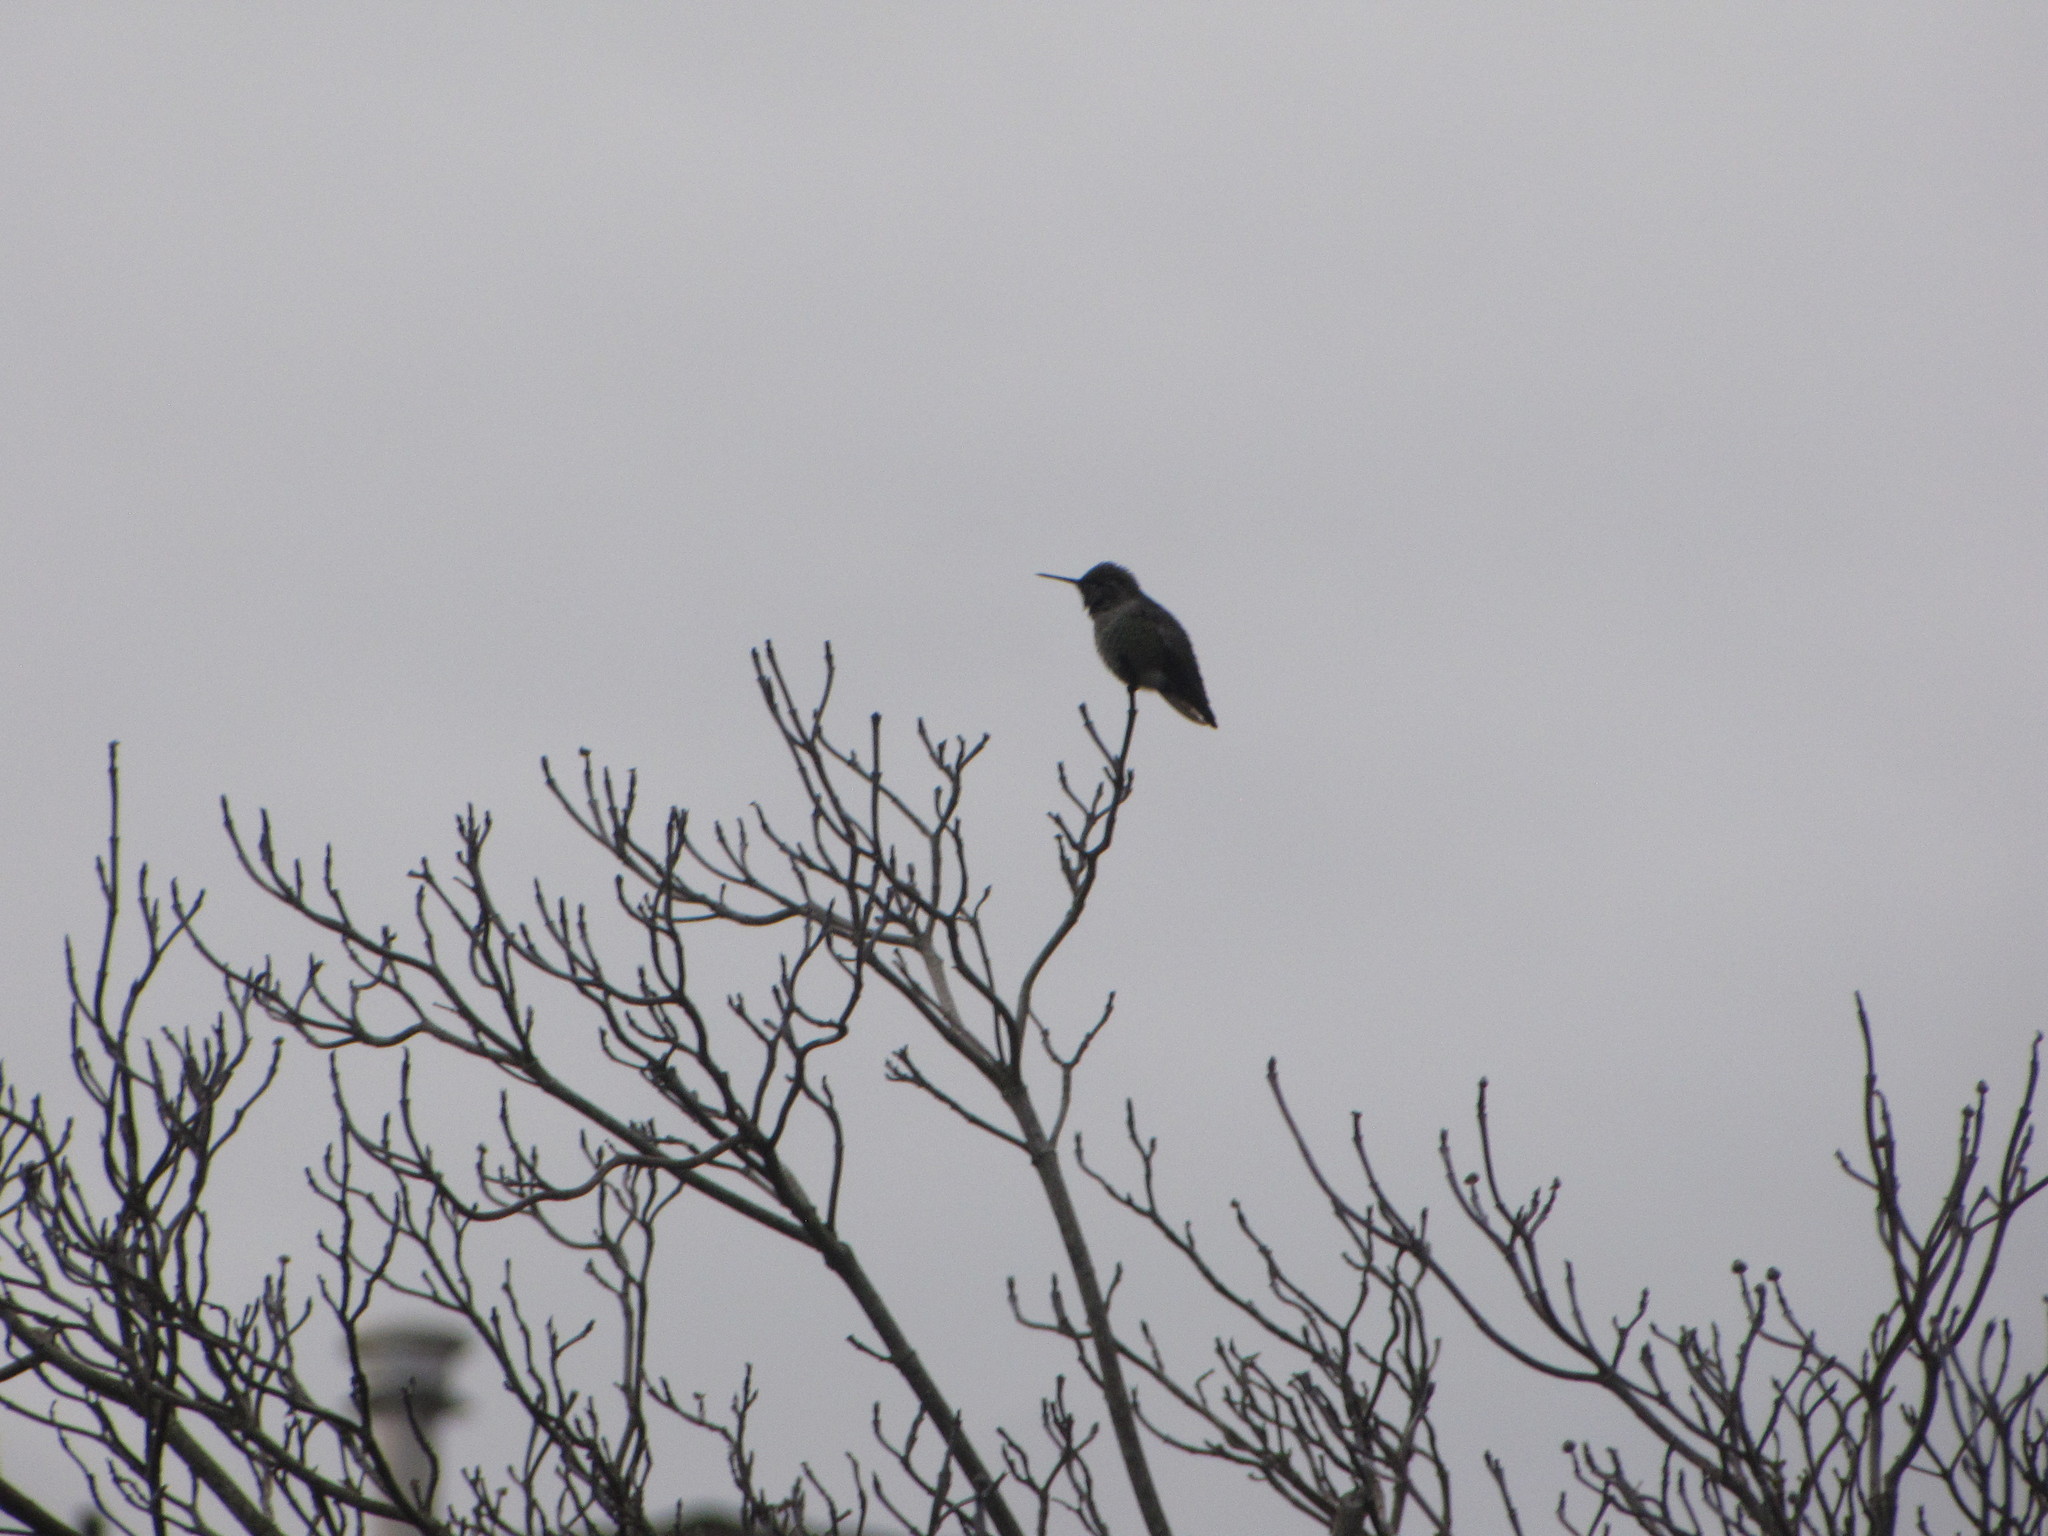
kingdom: Animalia
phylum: Chordata
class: Aves
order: Apodiformes
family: Trochilidae
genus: Calypte
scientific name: Calypte anna
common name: Anna's hummingbird
